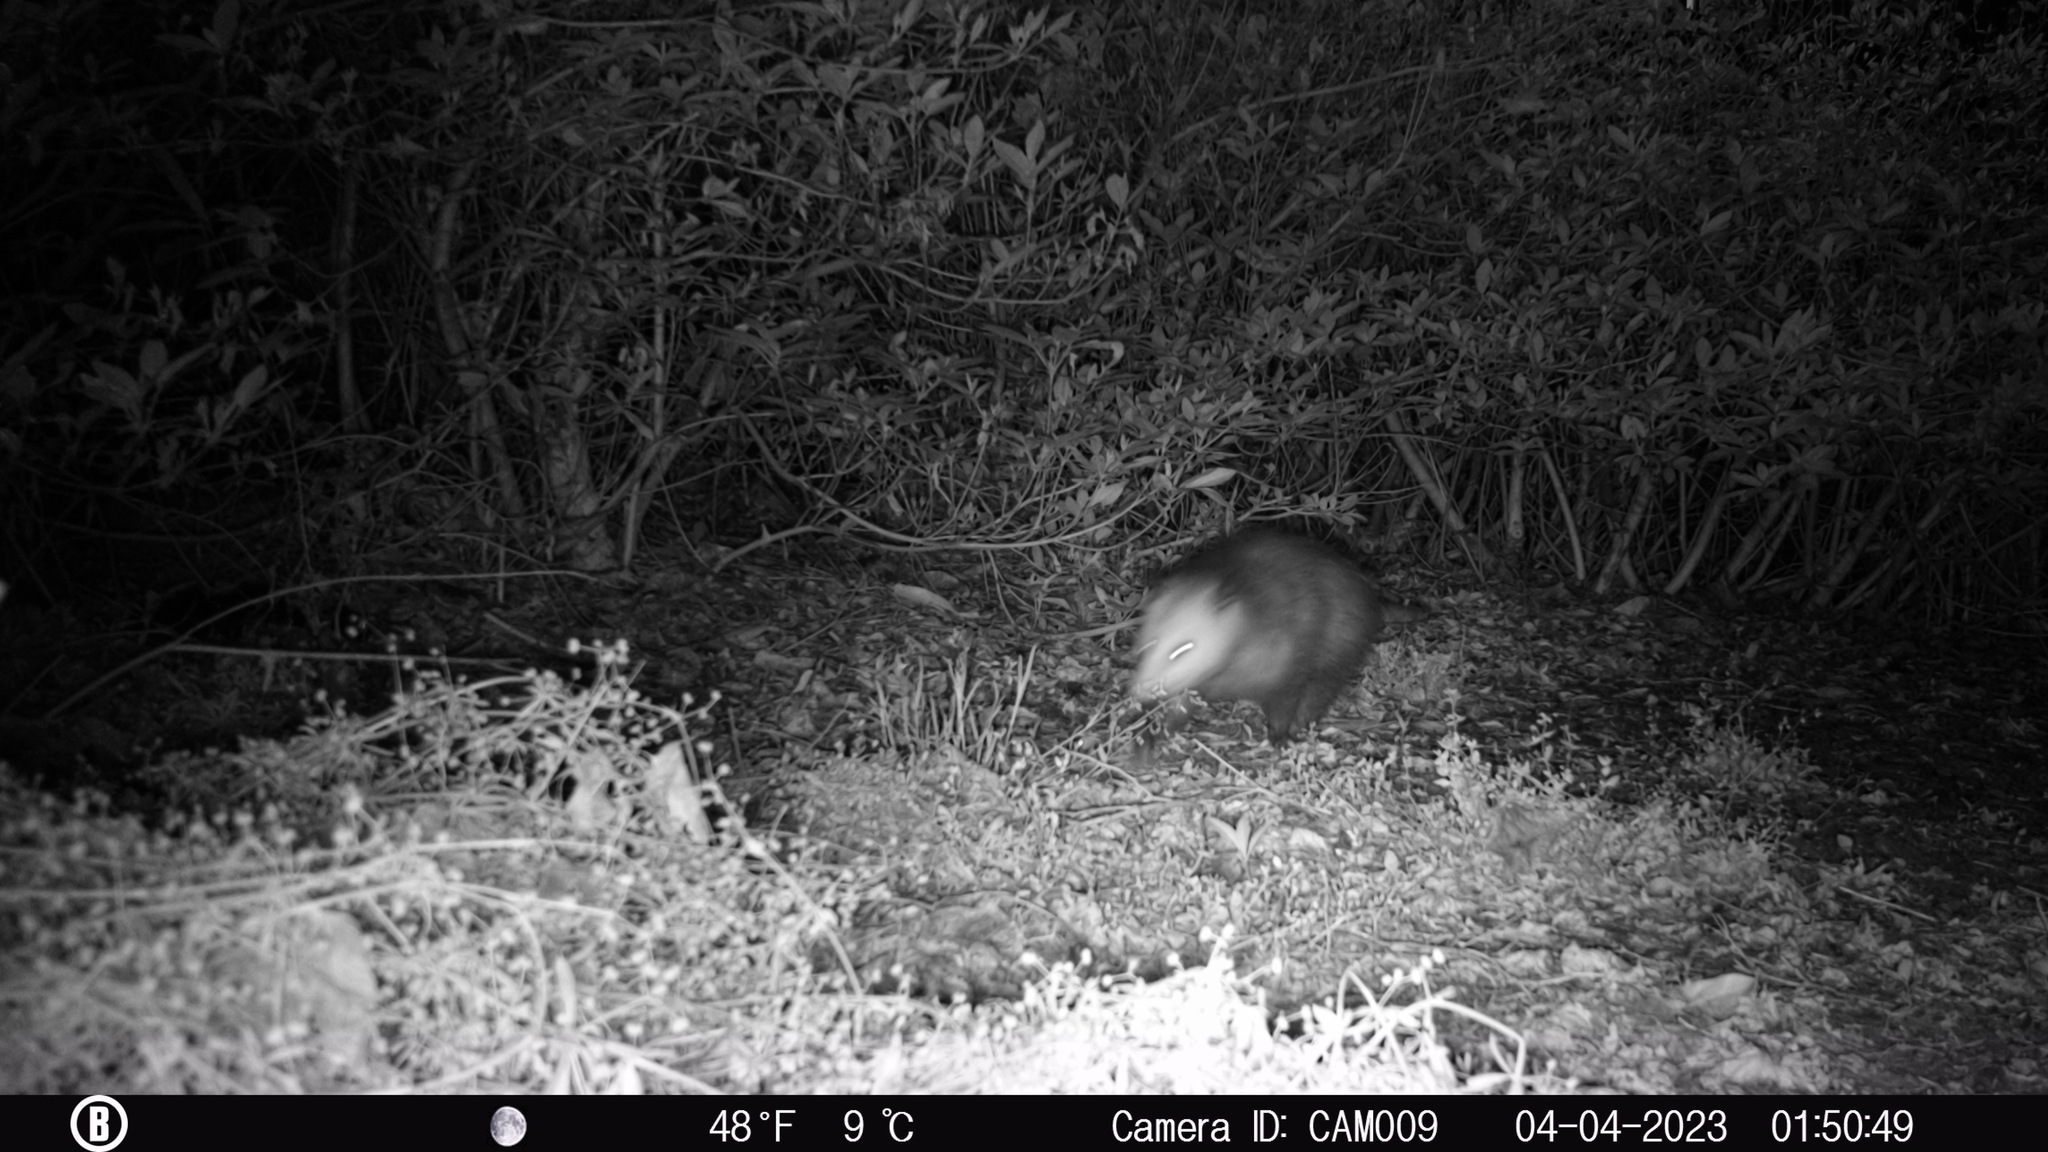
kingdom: Animalia
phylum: Chordata
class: Mammalia
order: Didelphimorphia
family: Didelphidae
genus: Didelphis
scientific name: Didelphis virginiana
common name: Virginia opossum
